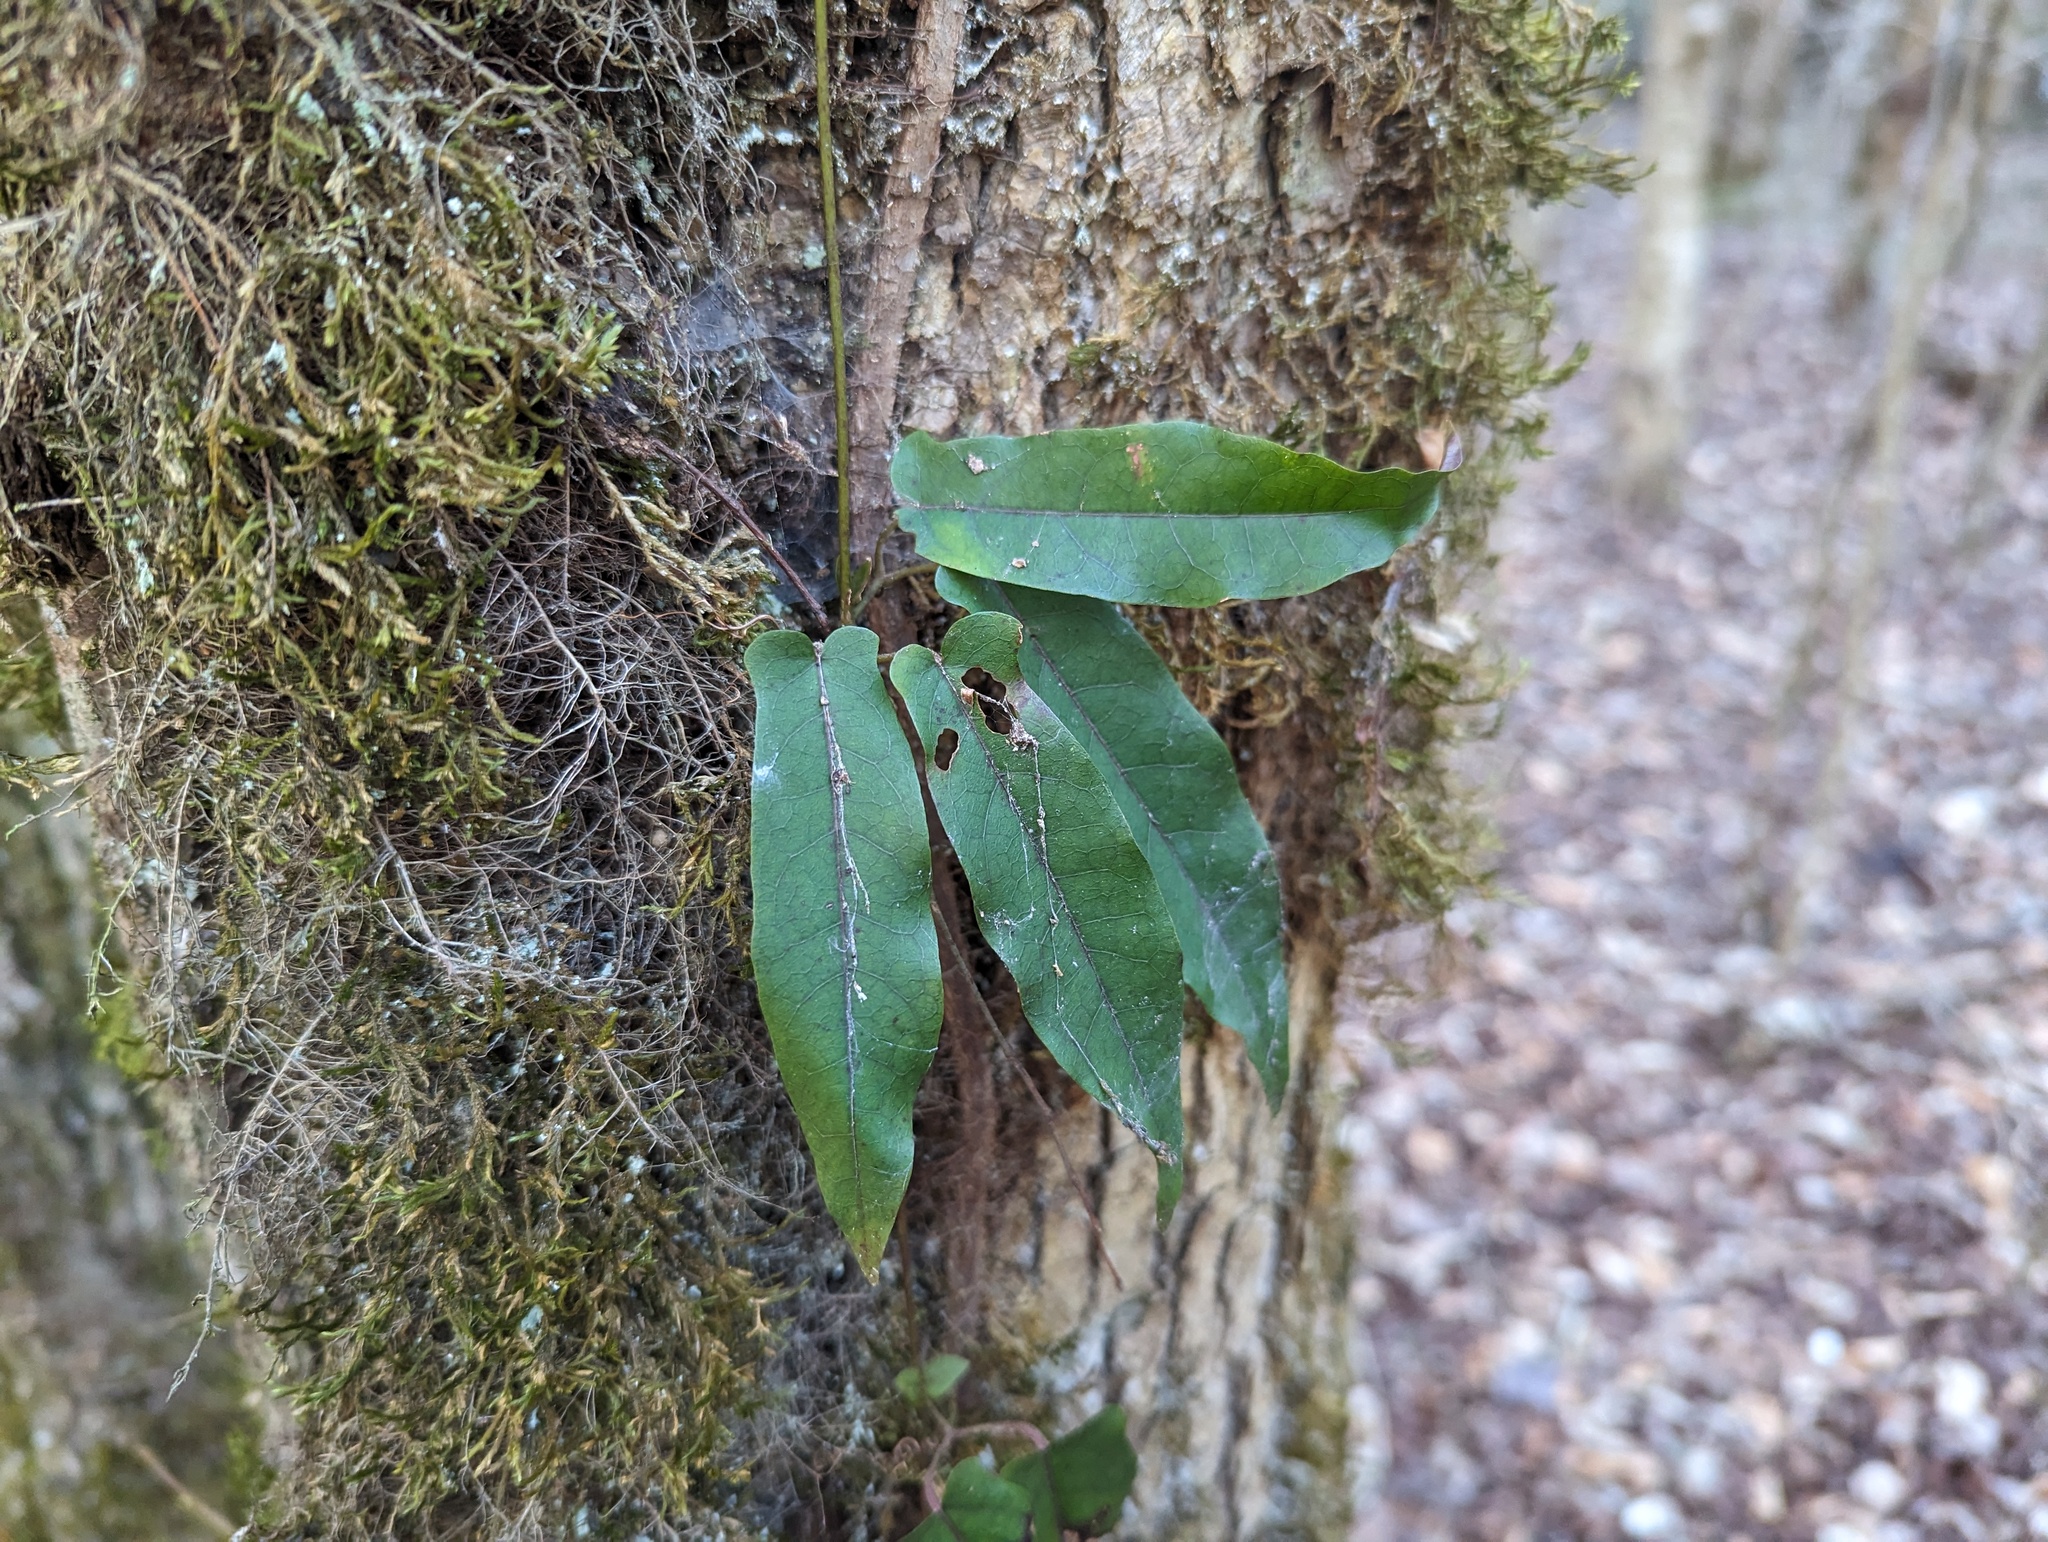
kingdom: Plantae
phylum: Tracheophyta
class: Magnoliopsida
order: Lamiales
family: Bignoniaceae
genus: Bignonia
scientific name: Bignonia capreolata
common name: Crossvine
